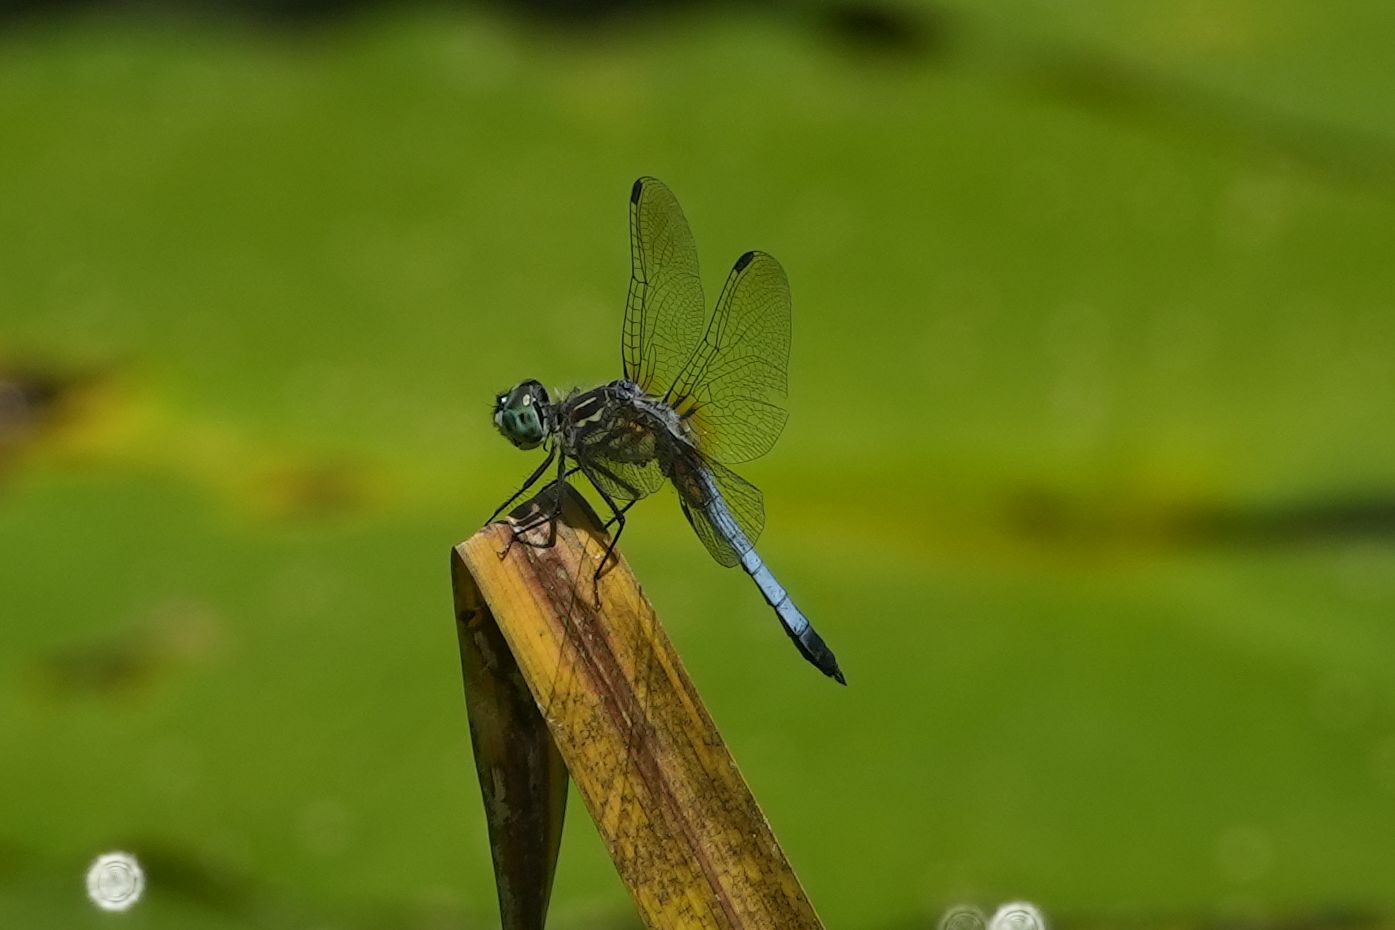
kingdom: Animalia
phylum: Arthropoda
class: Insecta
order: Odonata
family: Libellulidae
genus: Pachydiplax
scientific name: Pachydiplax longipennis
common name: Blue dasher
